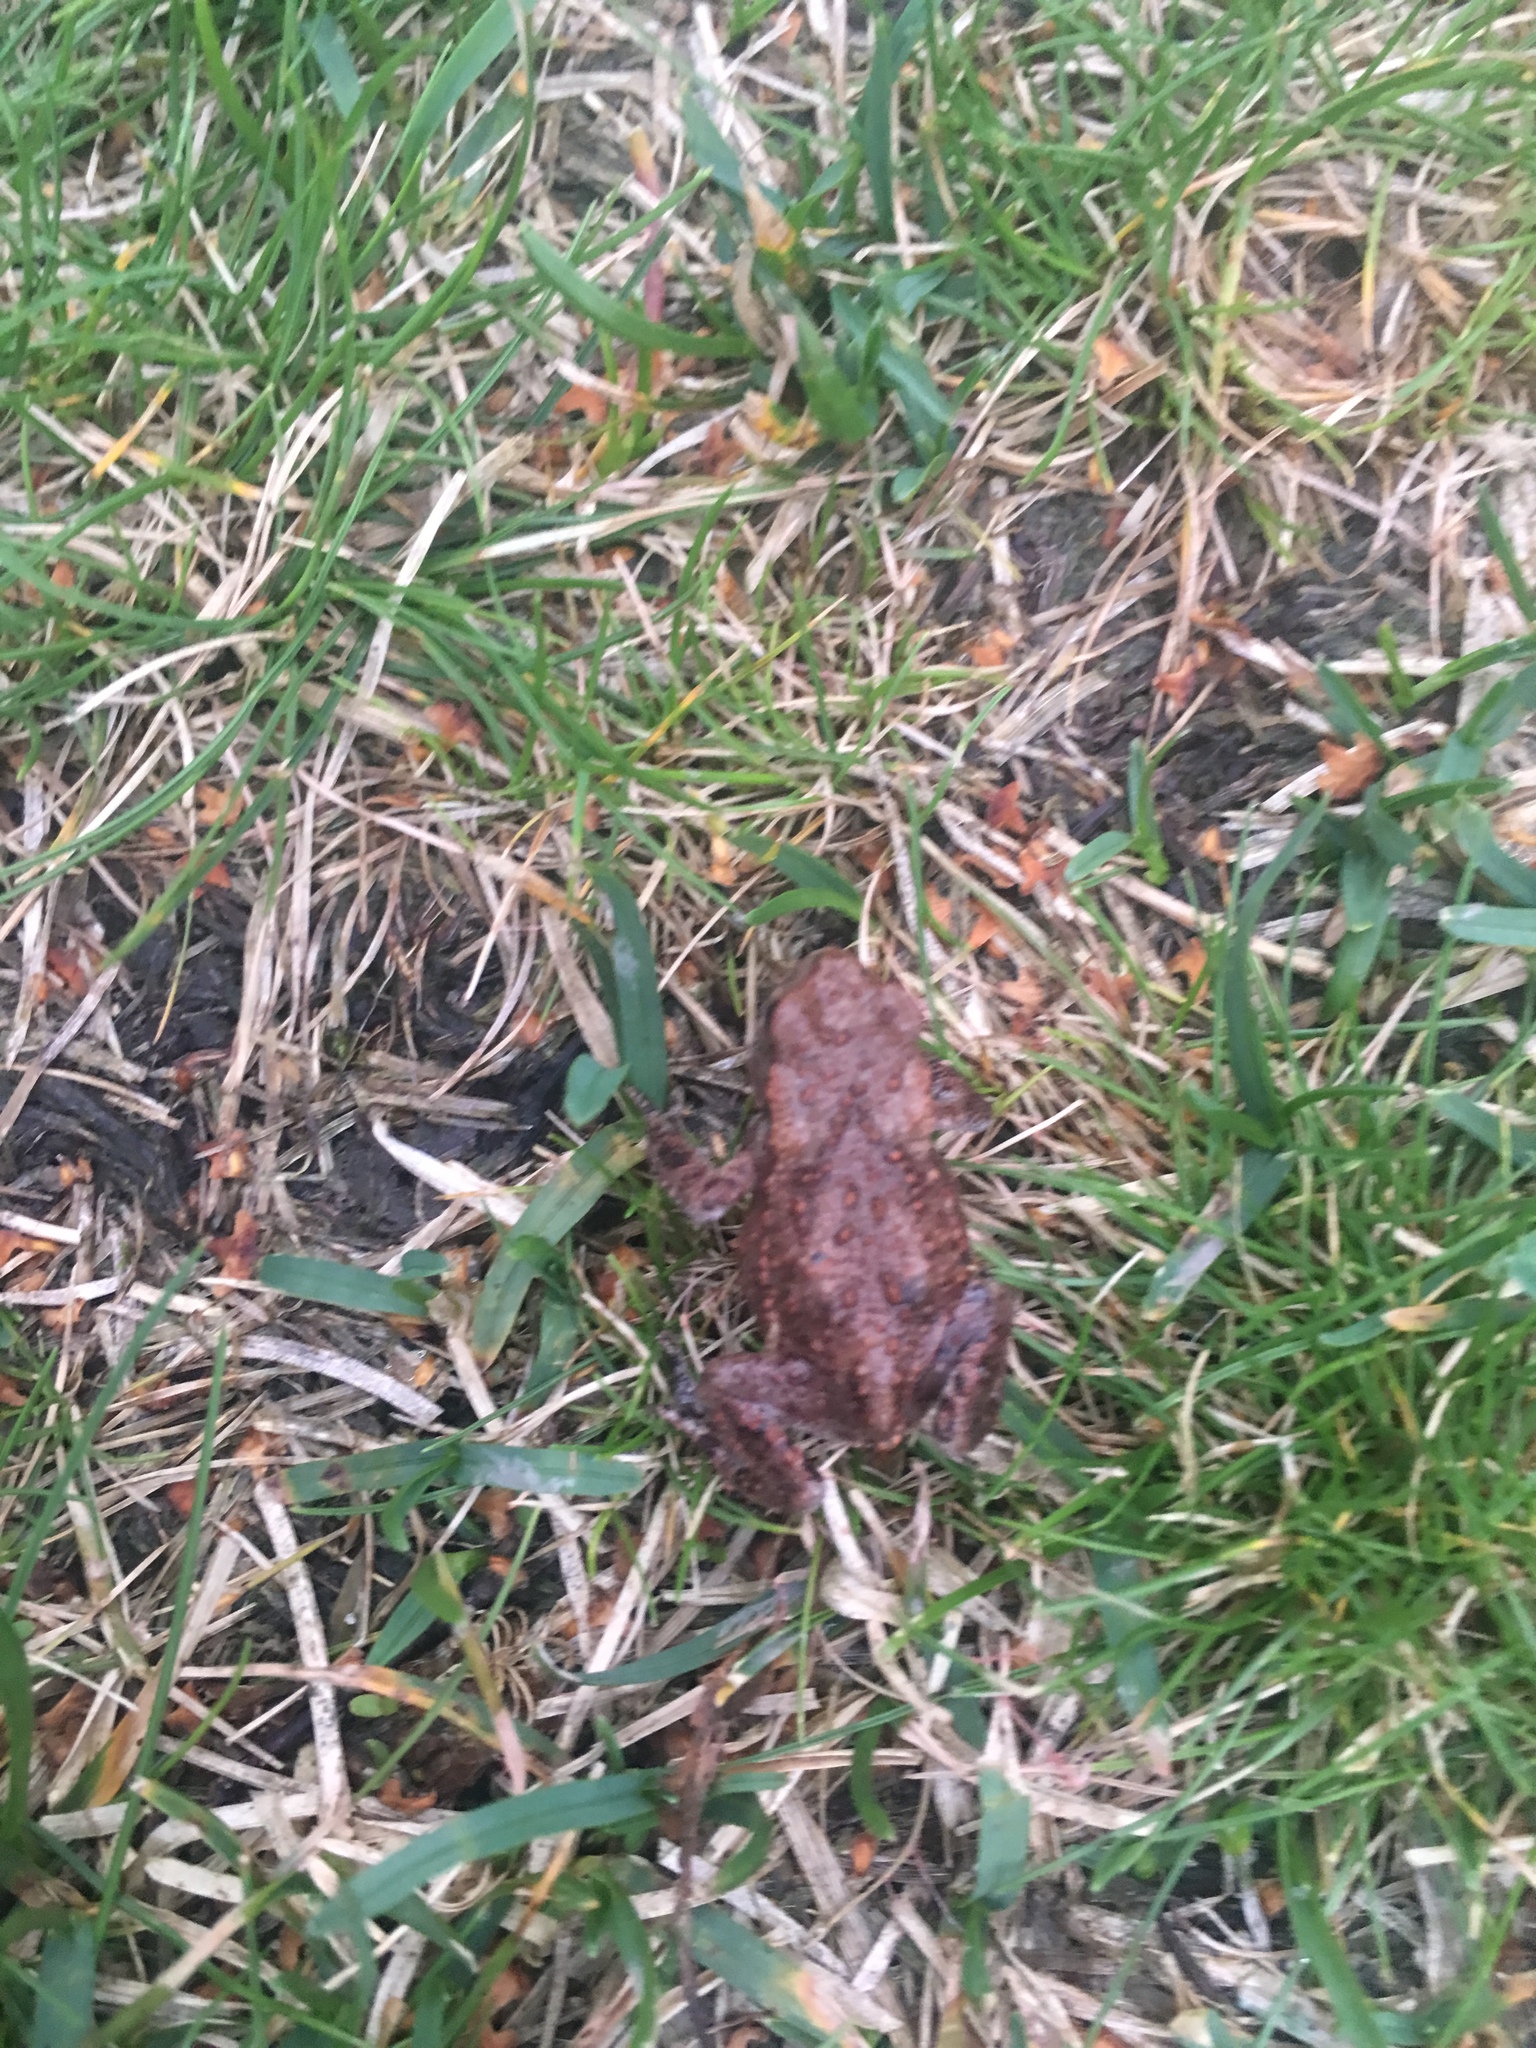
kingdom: Animalia
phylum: Chordata
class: Amphibia
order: Anura
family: Bufonidae
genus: Bufo
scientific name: Bufo bufo
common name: Common toad
